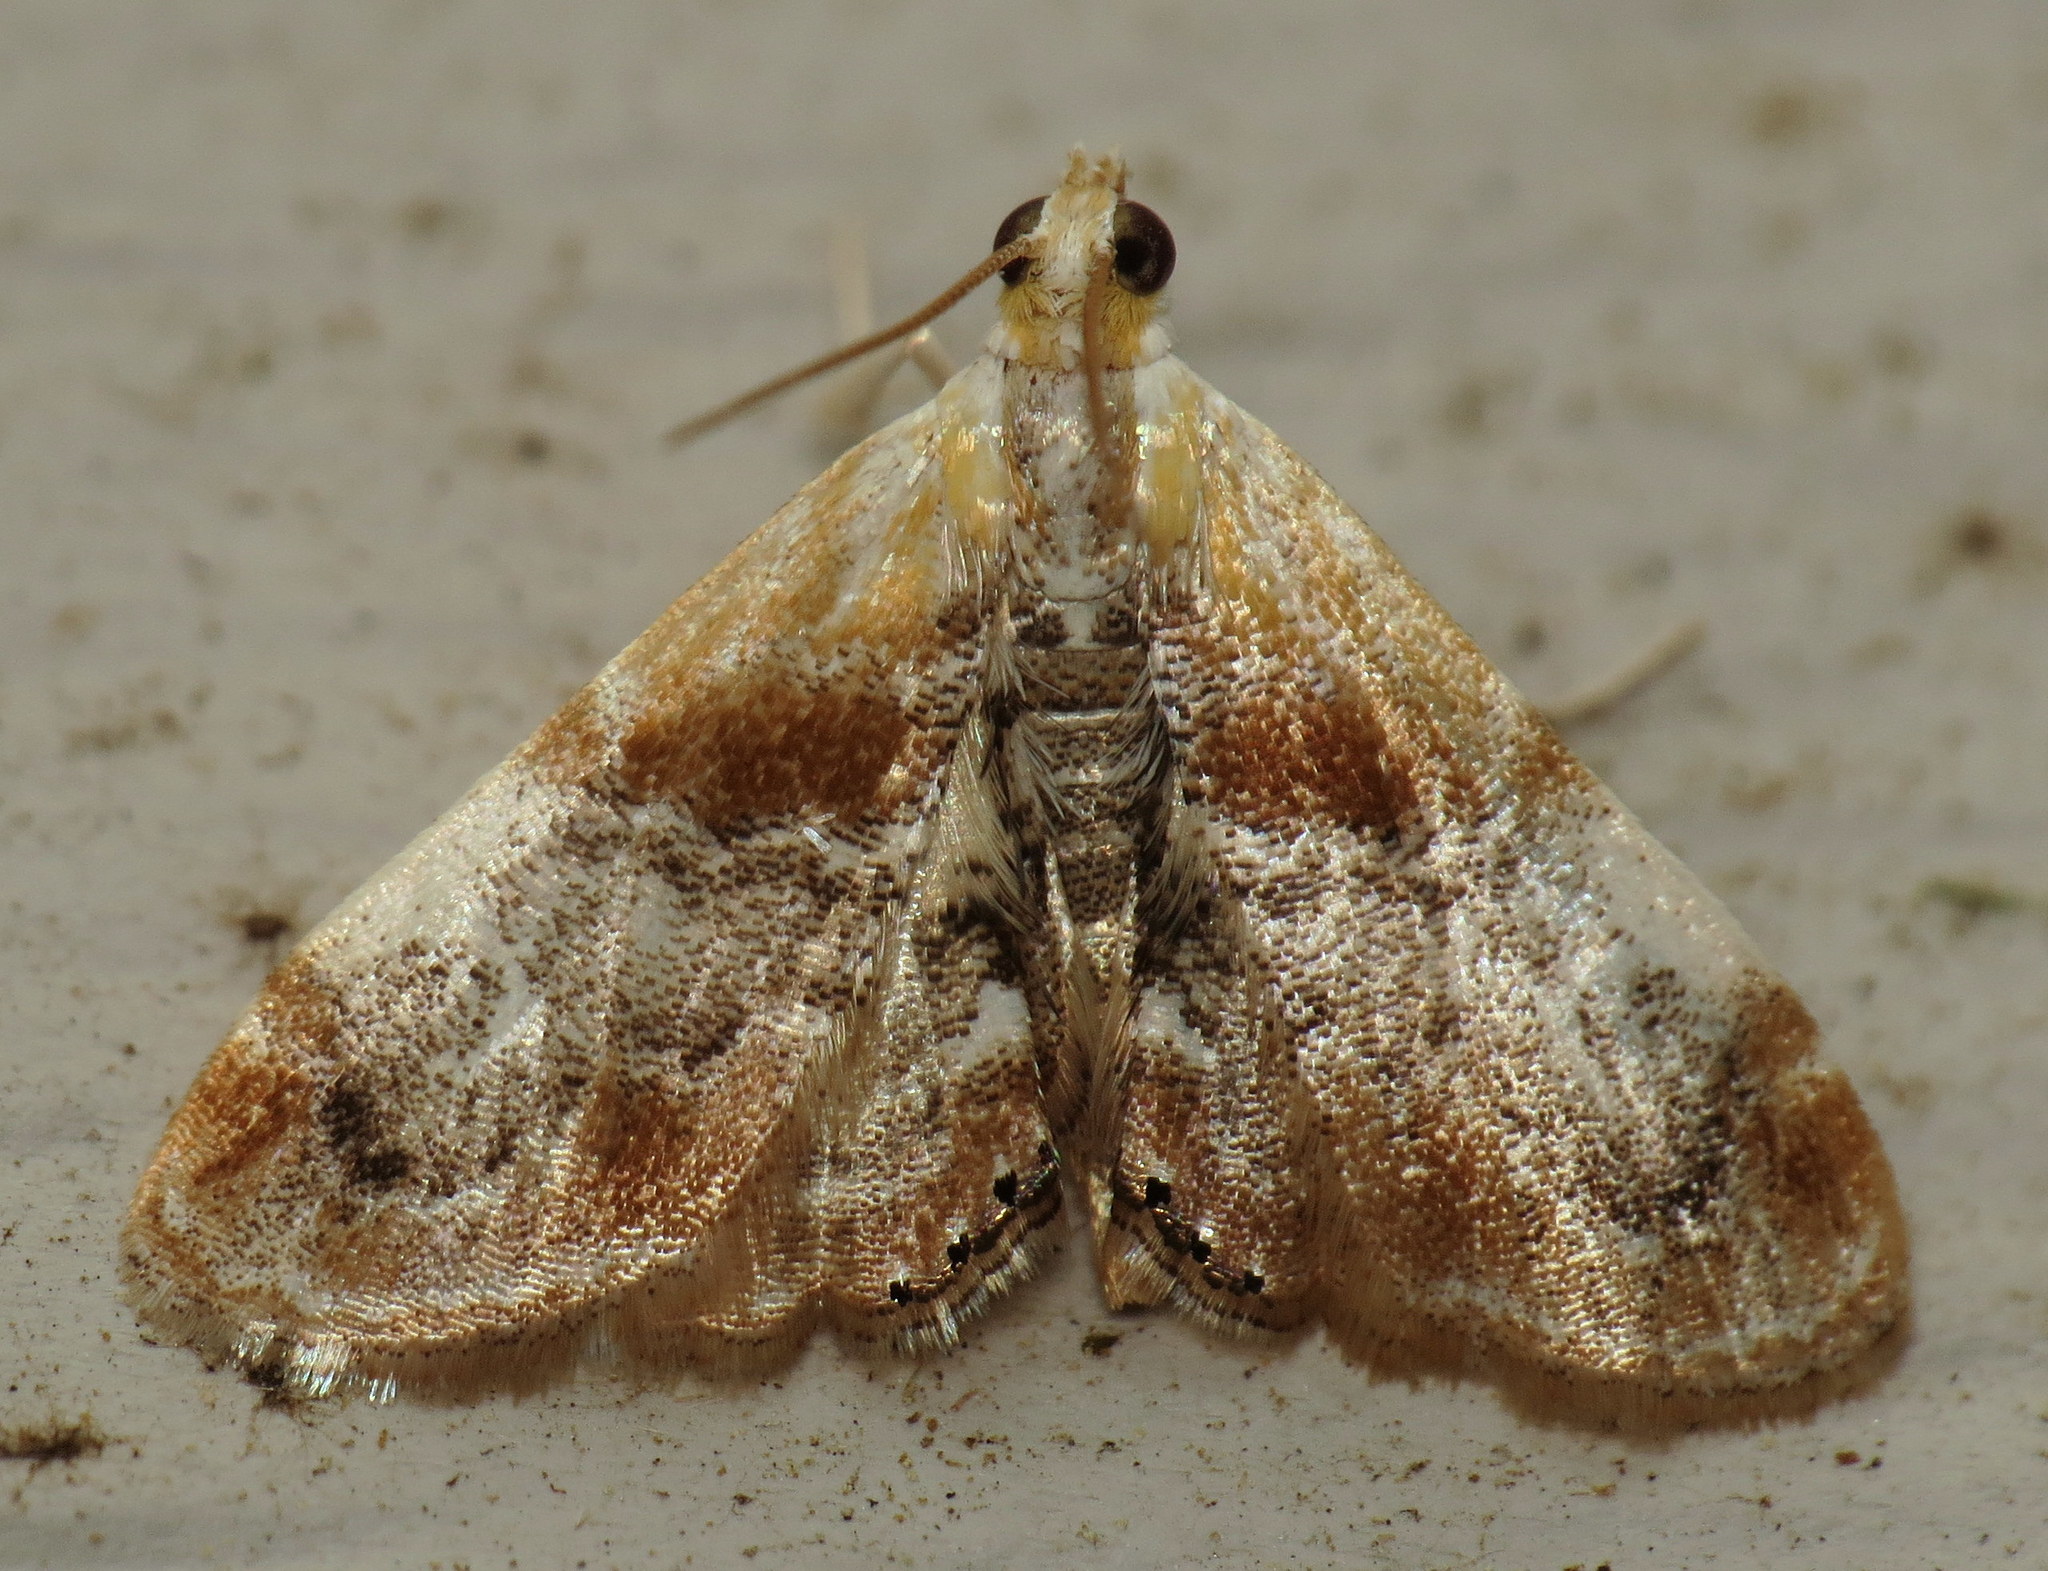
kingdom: Animalia
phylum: Arthropoda
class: Insecta
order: Lepidoptera
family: Crambidae
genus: Dicymolomia
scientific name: Dicymolomia julianalis
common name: Julia's dicymolomia moth
